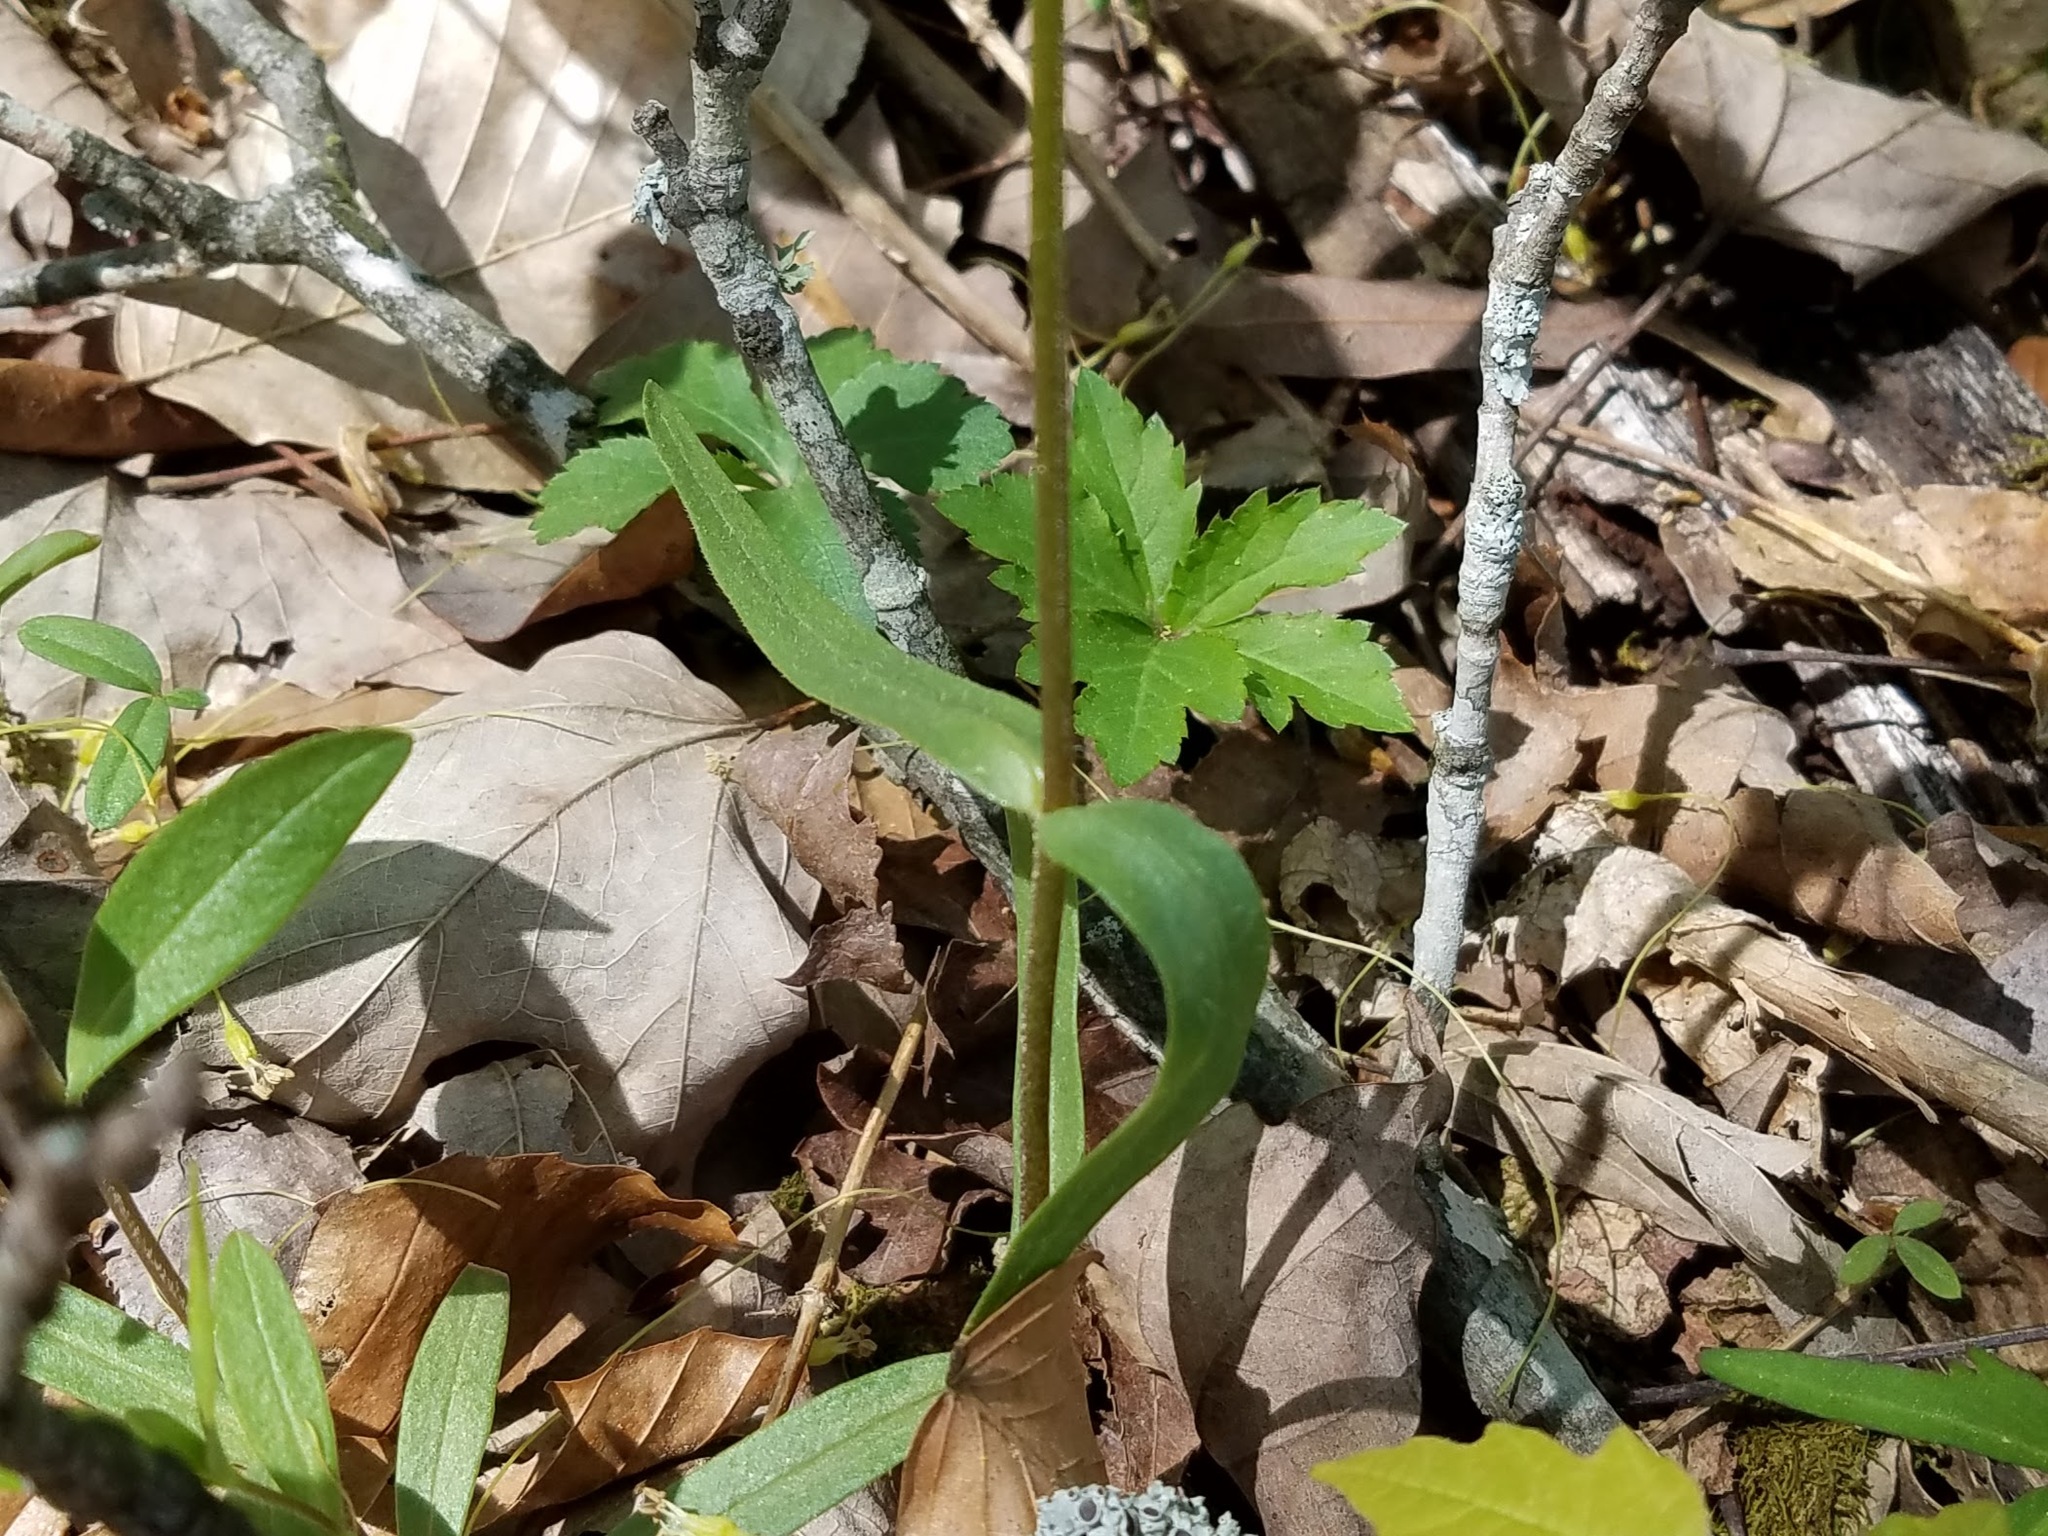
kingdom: Plantae
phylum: Tracheophyta
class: Magnoliopsida
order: Ericales
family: Polemoniaceae
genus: Phlox
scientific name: Phlox divaricata
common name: Blue phlox
